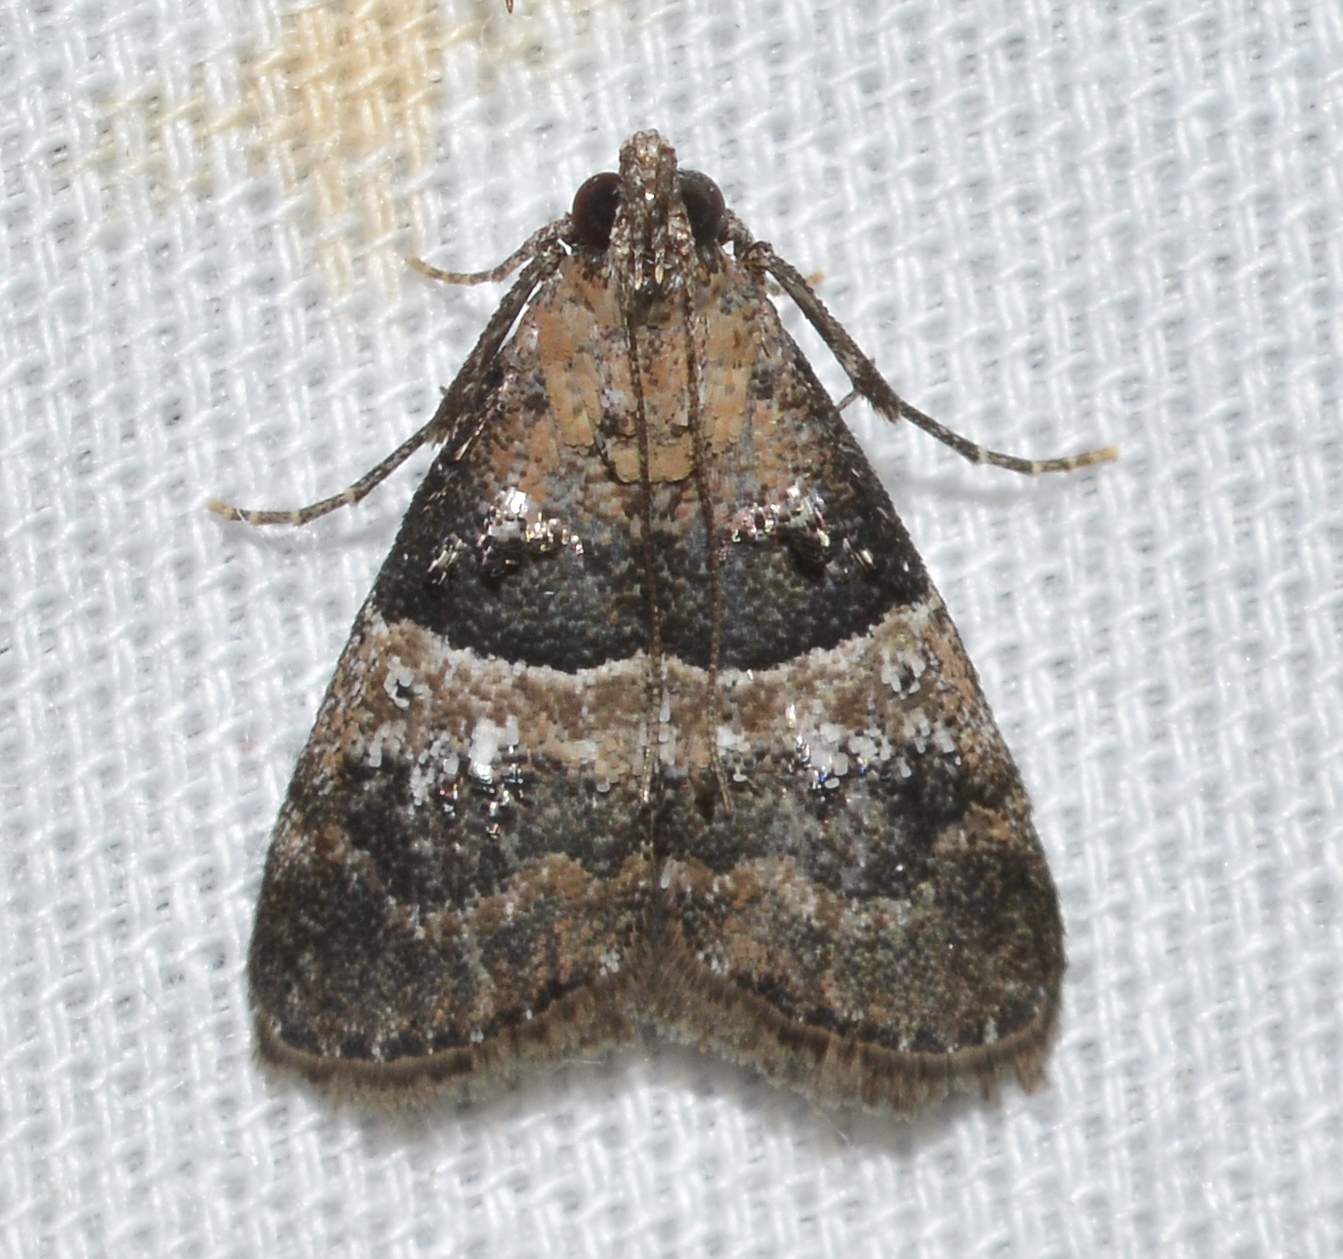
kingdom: Animalia
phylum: Arthropoda
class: Insecta
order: Lepidoptera
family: Pyralidae
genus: Pococera
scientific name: Pococera scortealis
